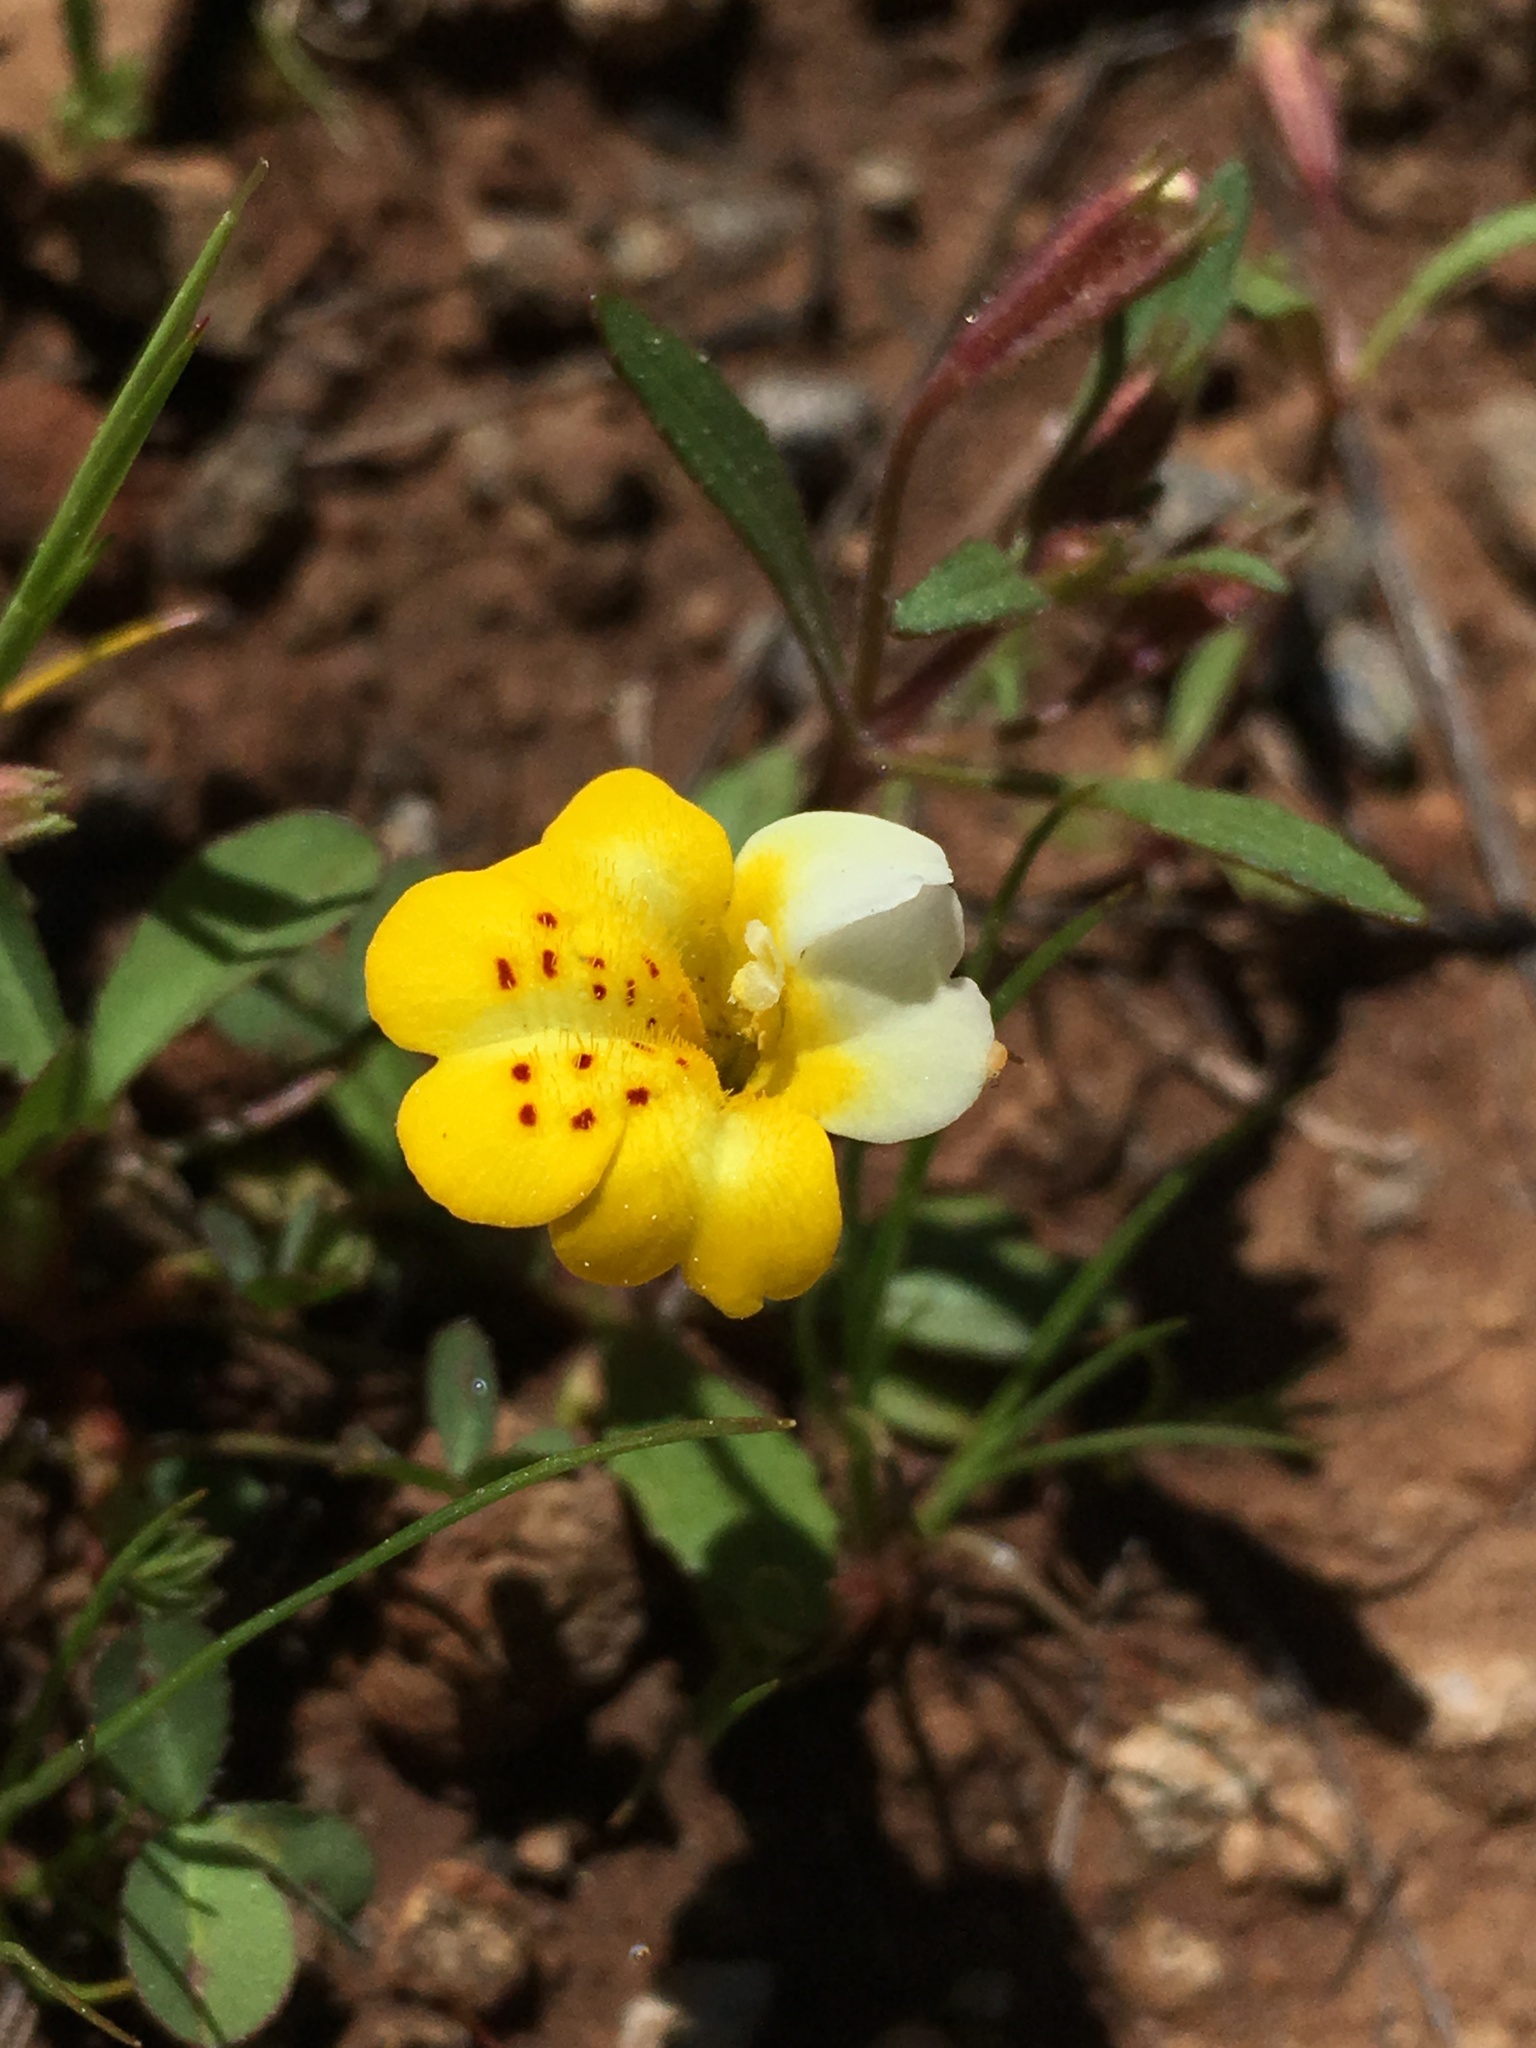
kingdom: Plantae
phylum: Tracheophyta
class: Magnoliopsida
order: Lamiales
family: Phrymaceae
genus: Erythranthe
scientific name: Erythranthe bicolor
